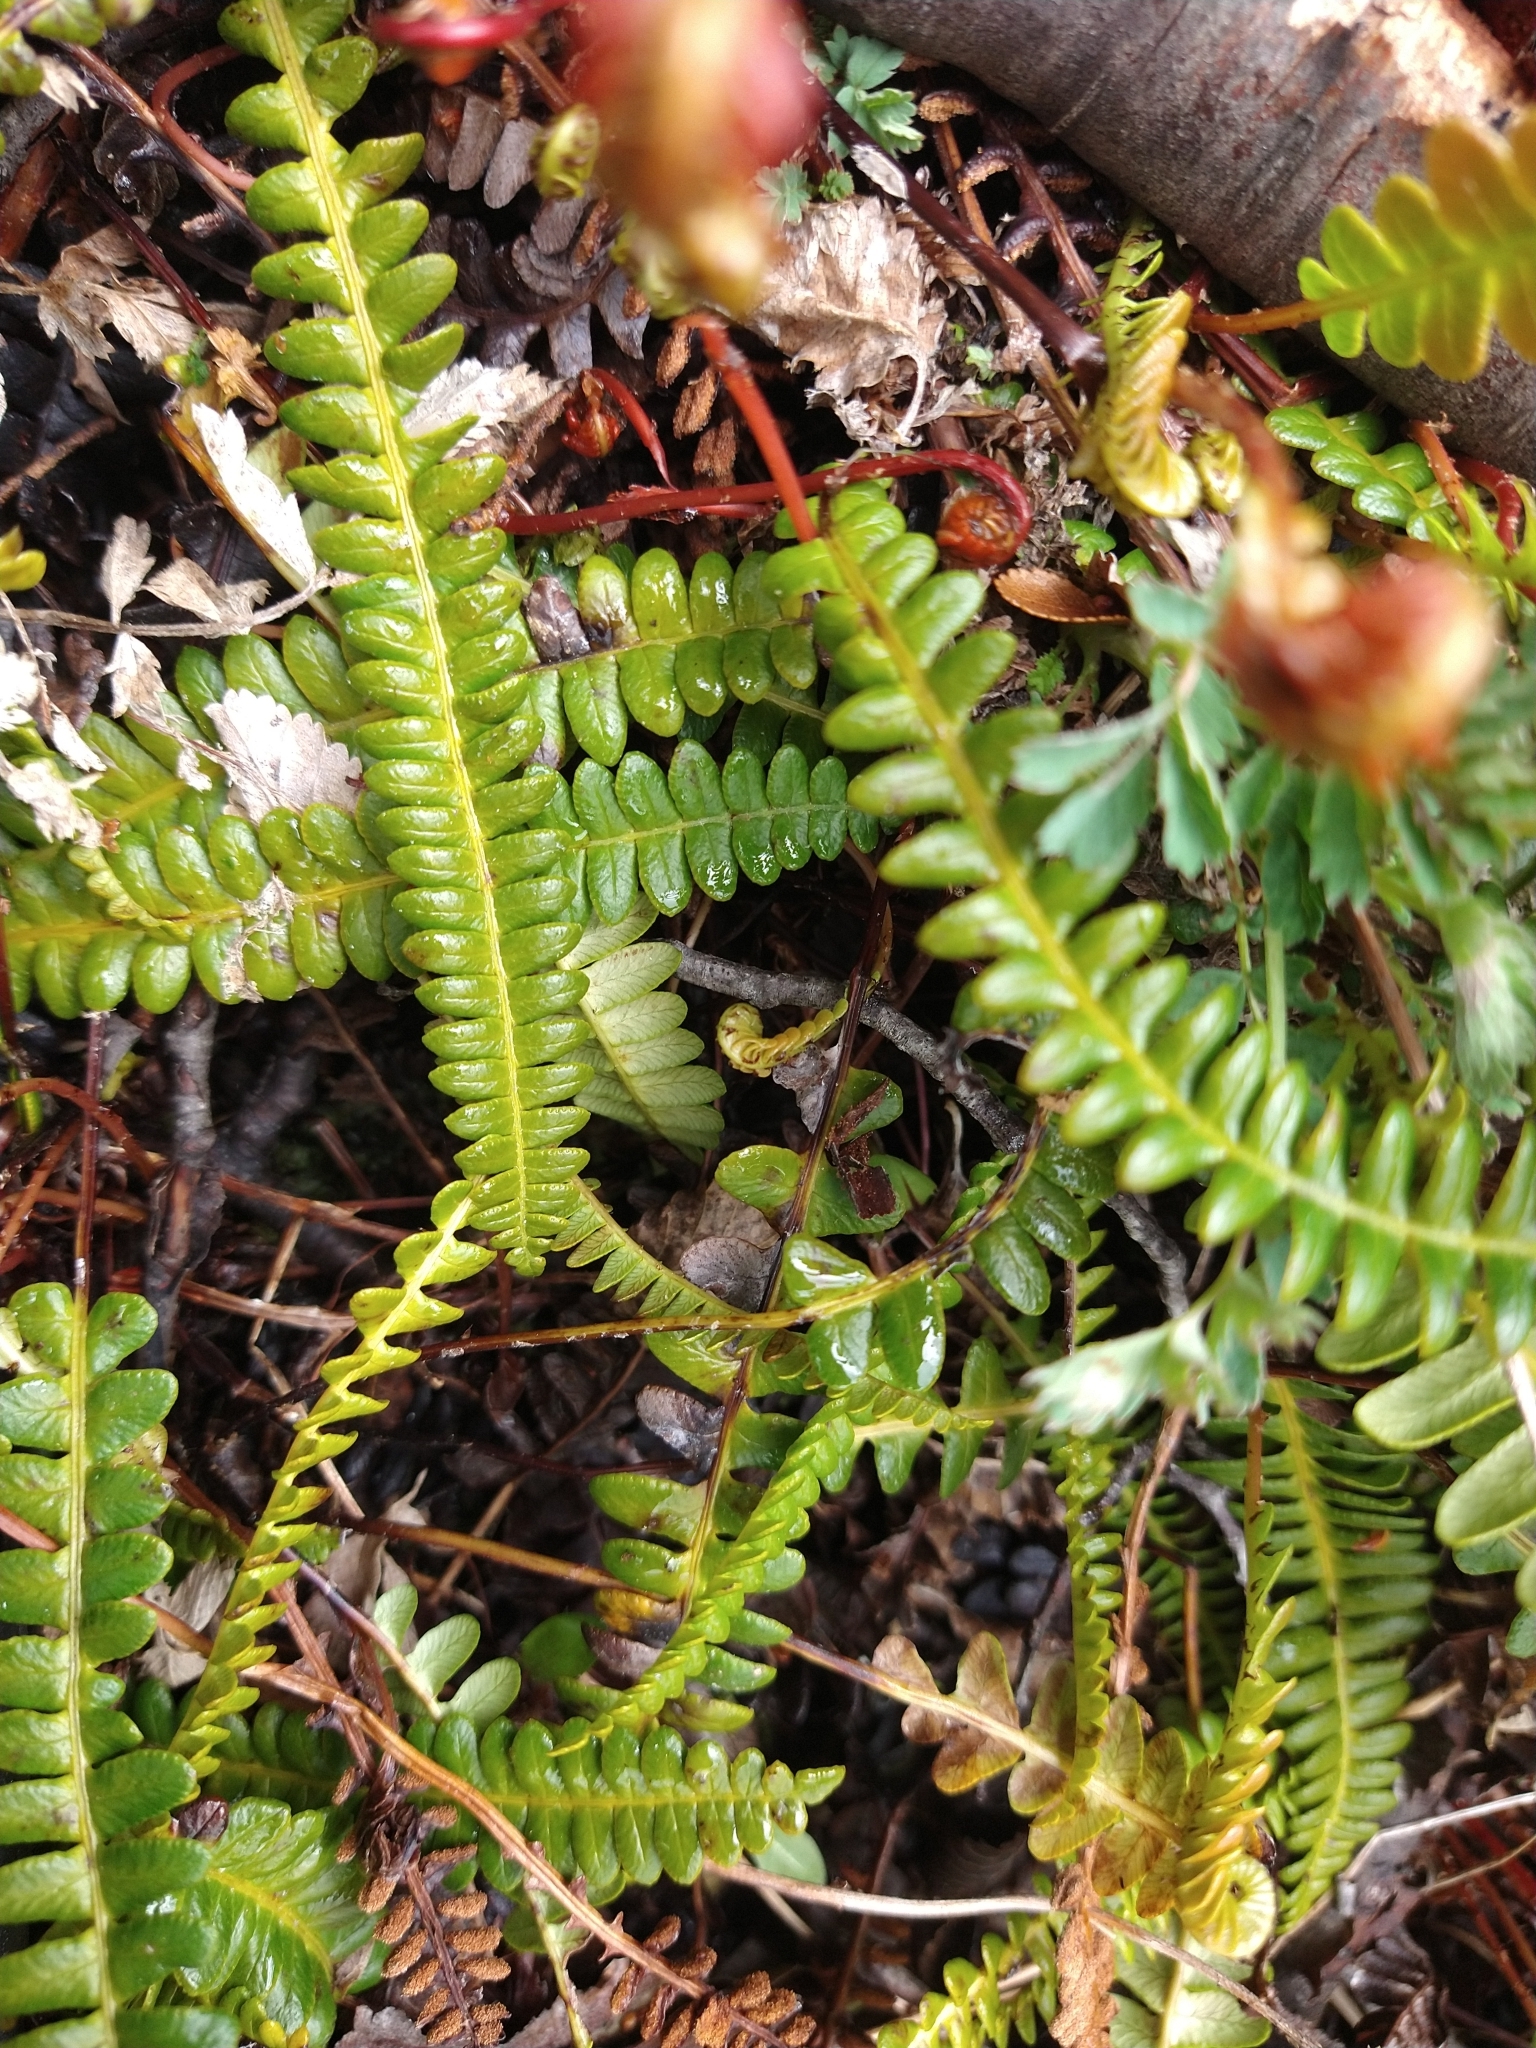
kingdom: Plantae
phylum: Tracheophyta
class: Polypodiopsida
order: Polypodiales
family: Blechnaceae
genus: Austroblechnum
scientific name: Austroblechnum penna-marina
